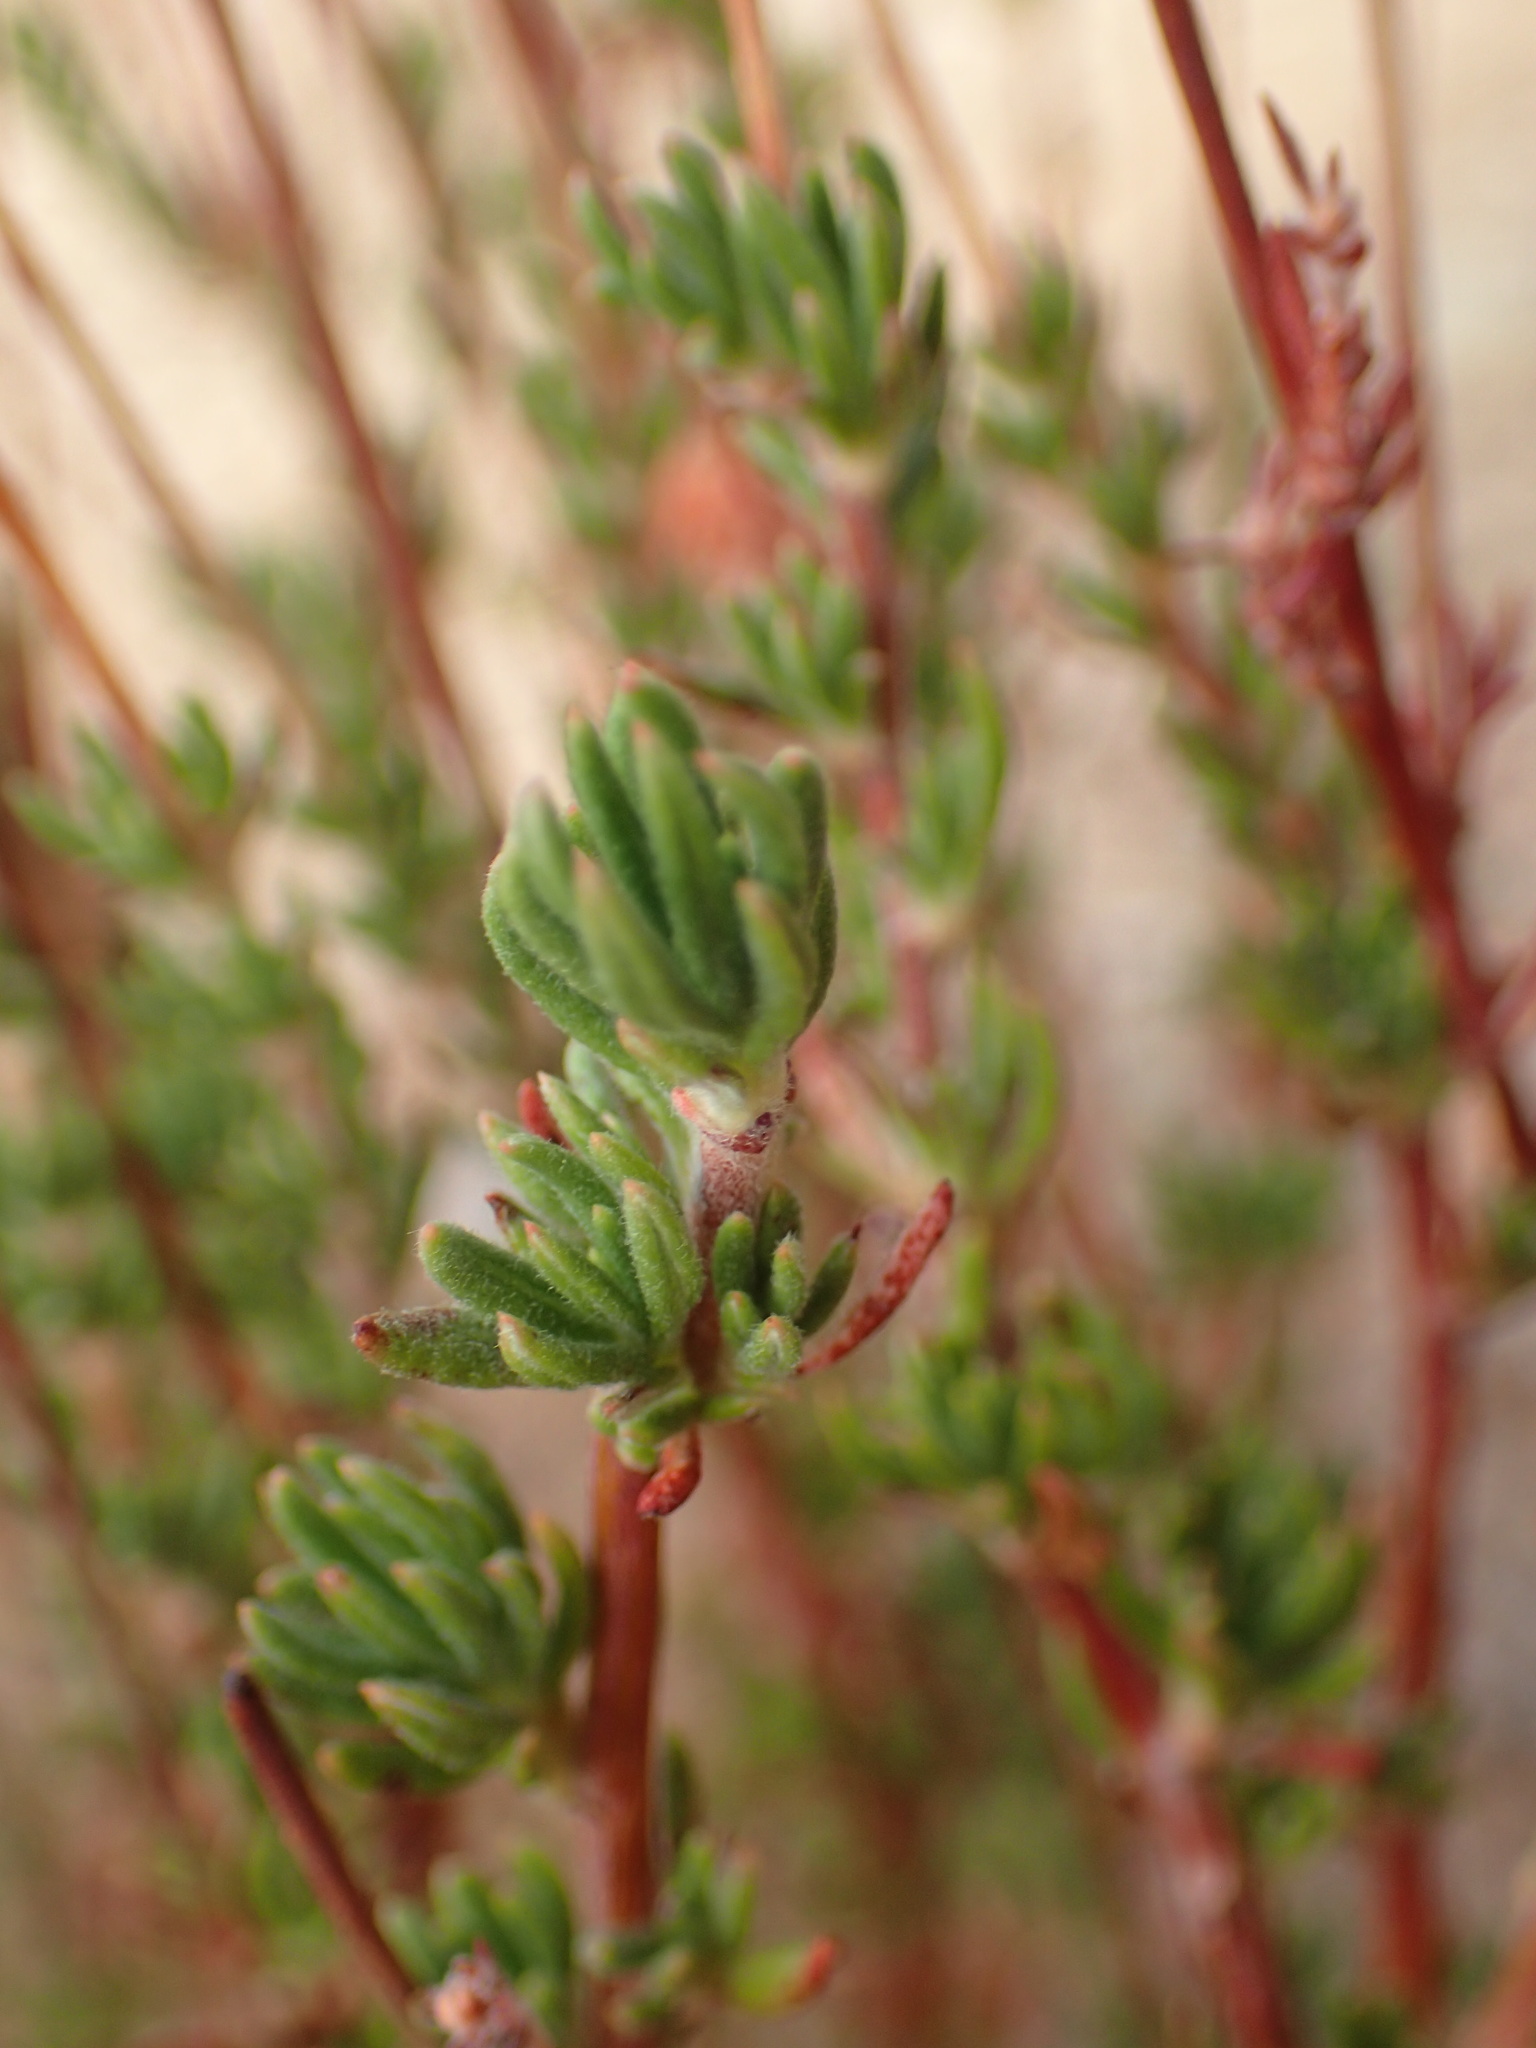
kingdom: Plantae
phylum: Tracheophyta
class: Magnoliopsida
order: Caryophyllales
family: Polygonaceae
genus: Eriogonum
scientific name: Eriogonum fasciculatum
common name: California wild buckwheat
